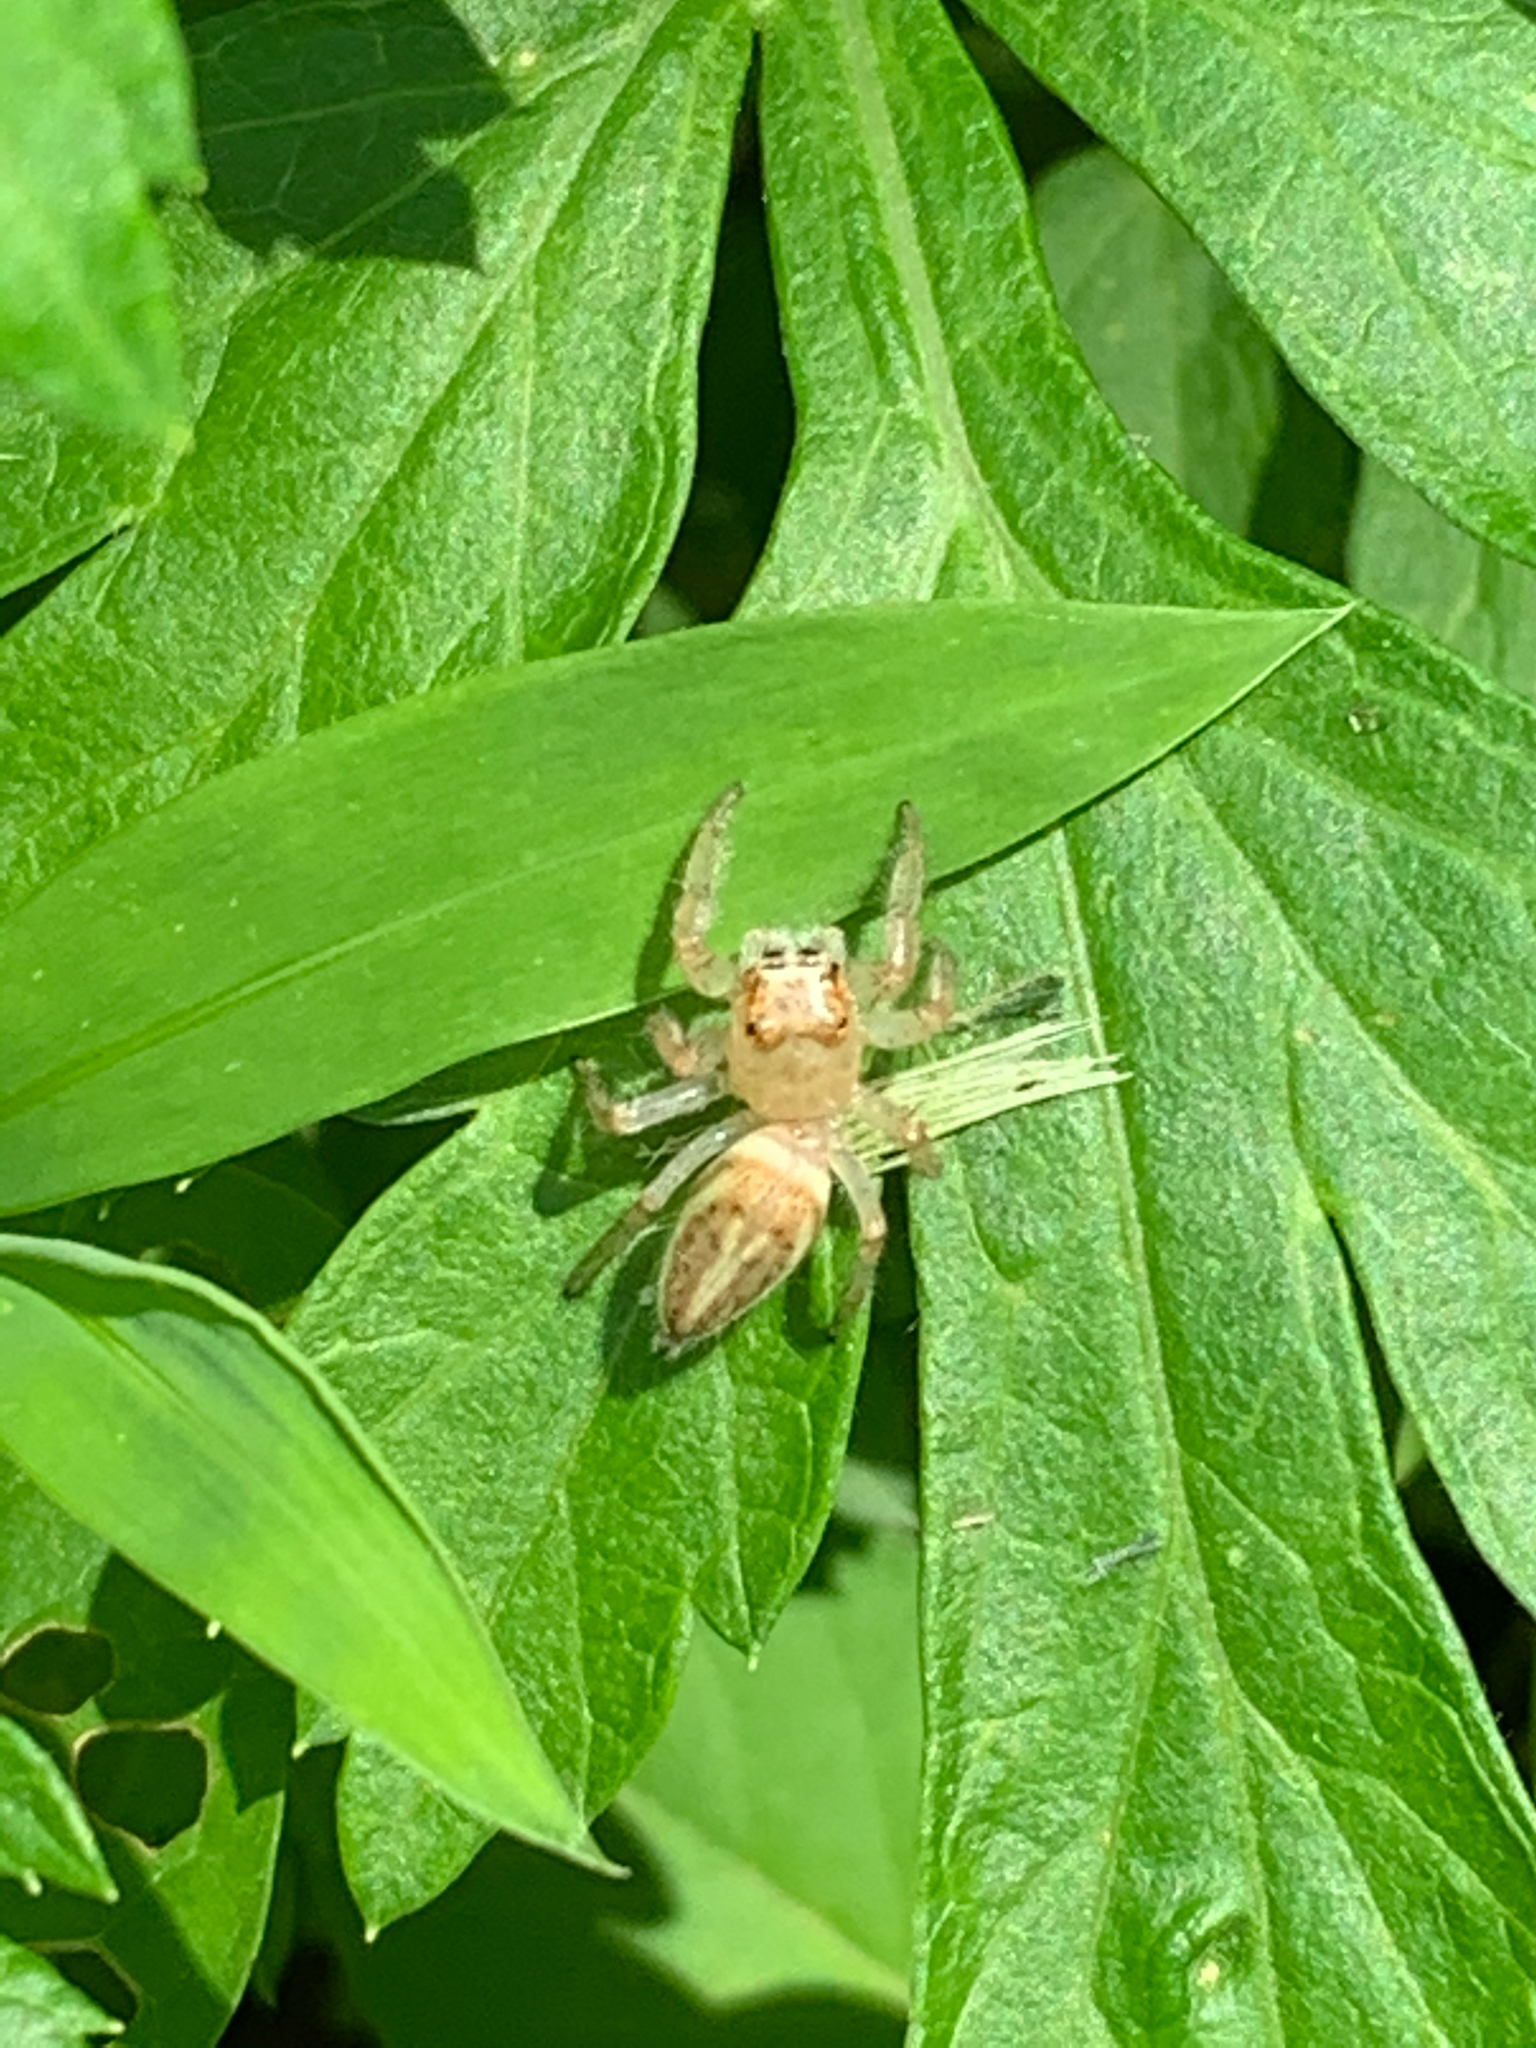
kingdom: Animalia
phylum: Arthropoda
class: Arachnida
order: Araneae
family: Salticidae
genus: Colonus
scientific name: Colonus
